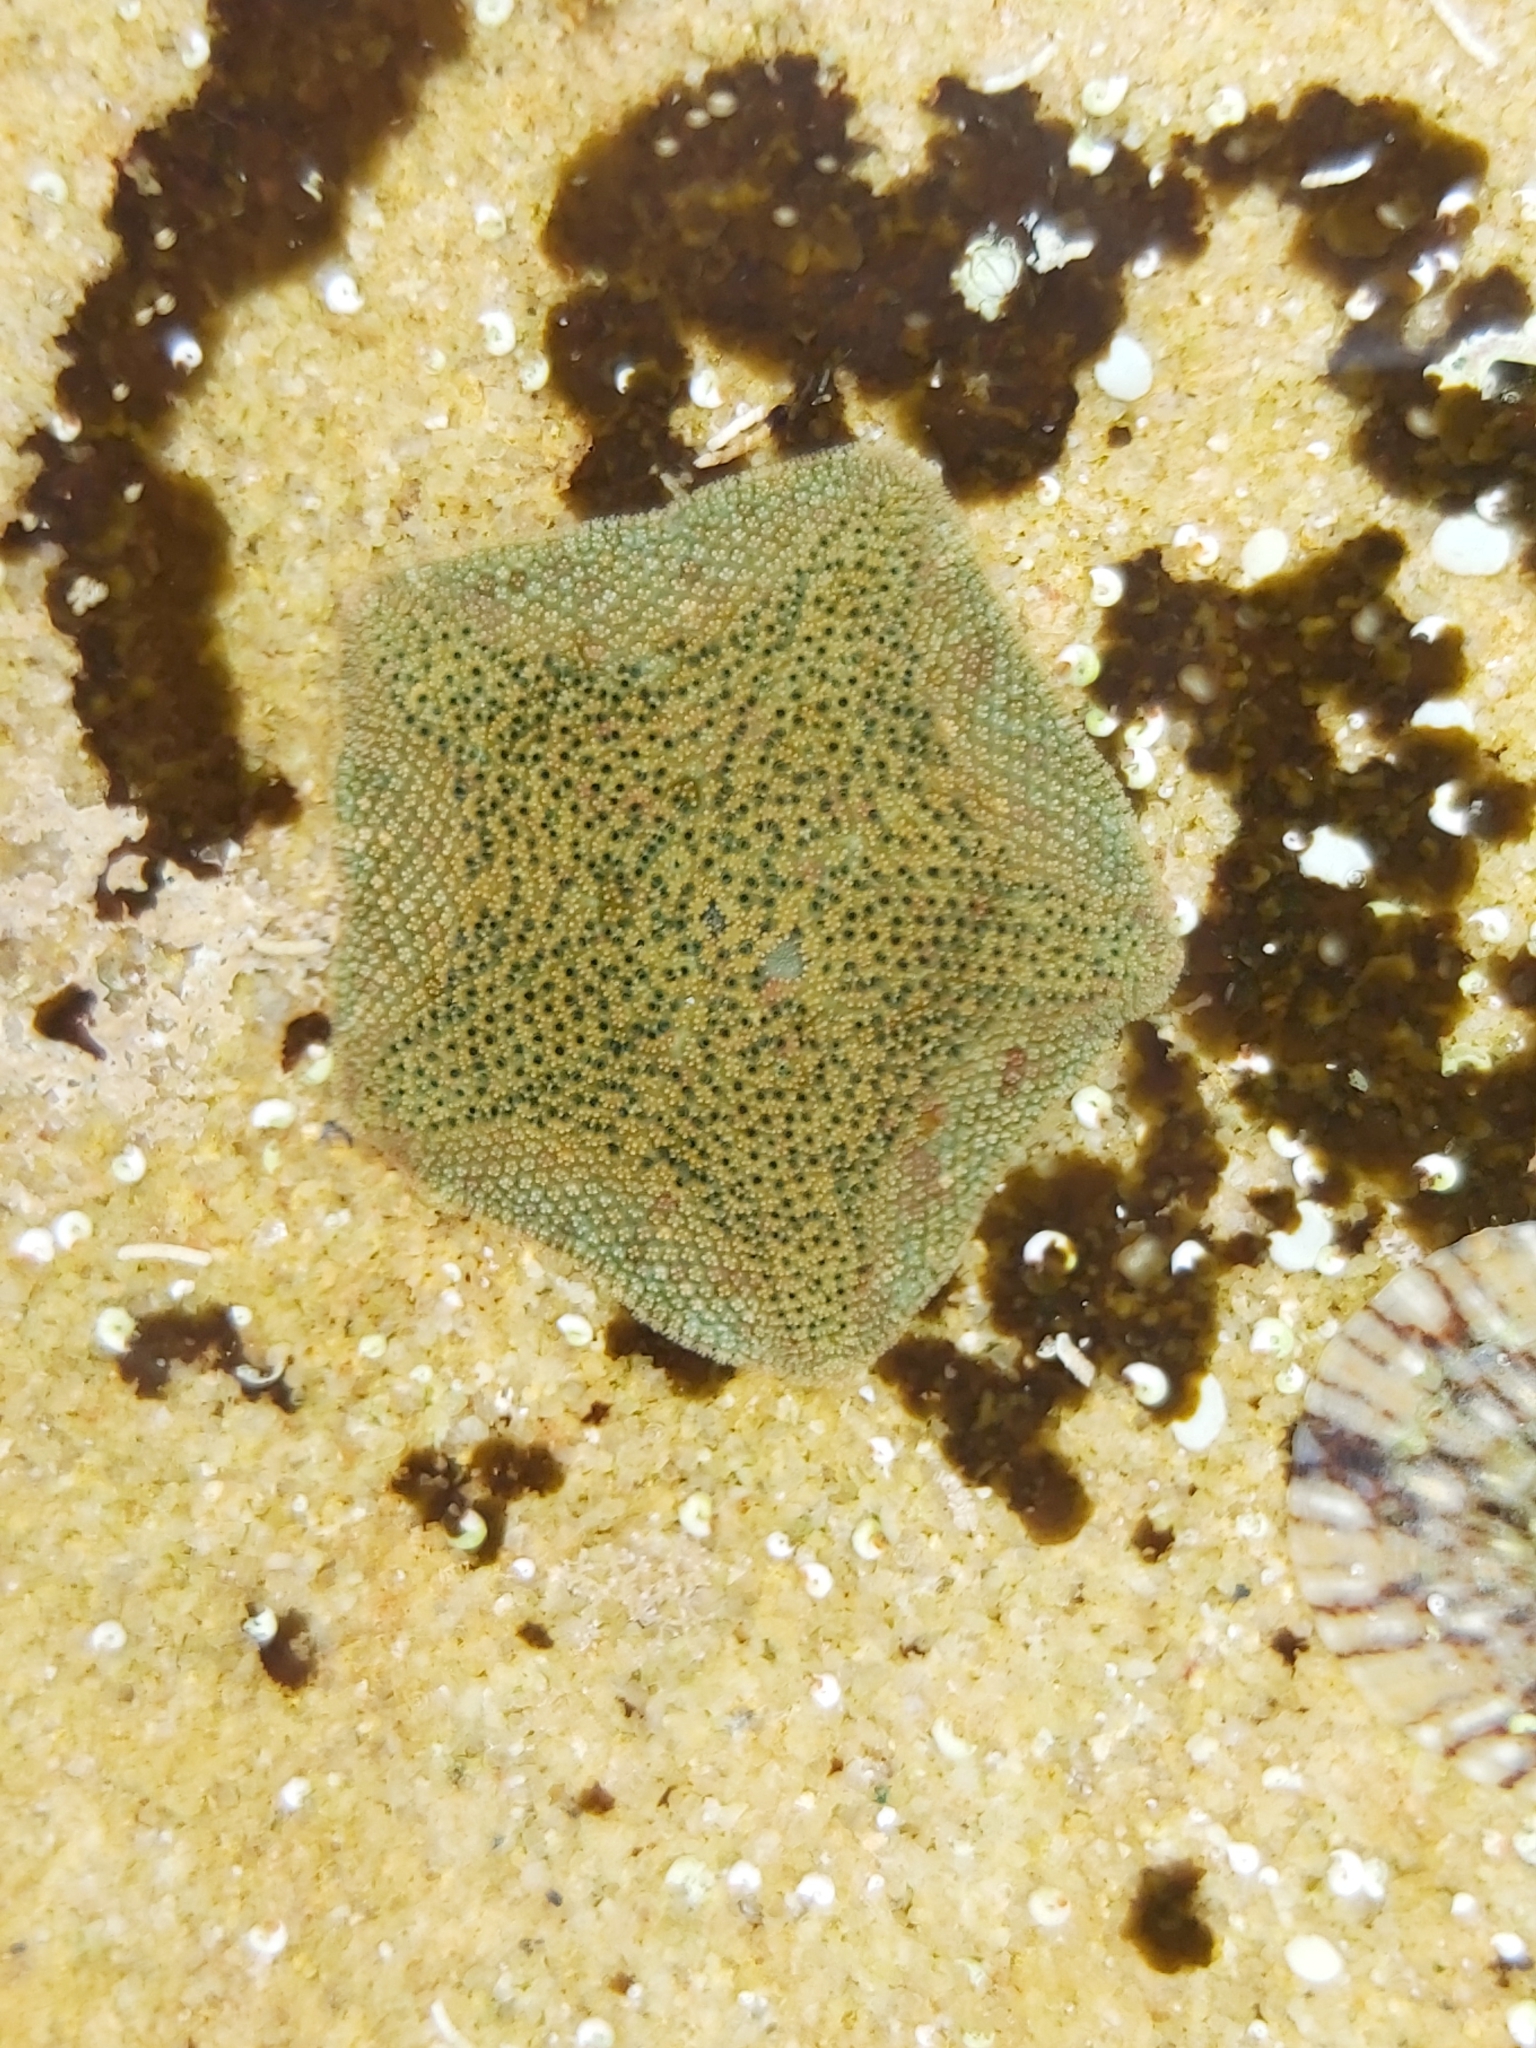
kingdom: Animalia
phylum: Echinodermata
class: Asteroidea
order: Valvatida
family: Asterinidae
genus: Parvulastra
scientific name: Parvulastra exigua
